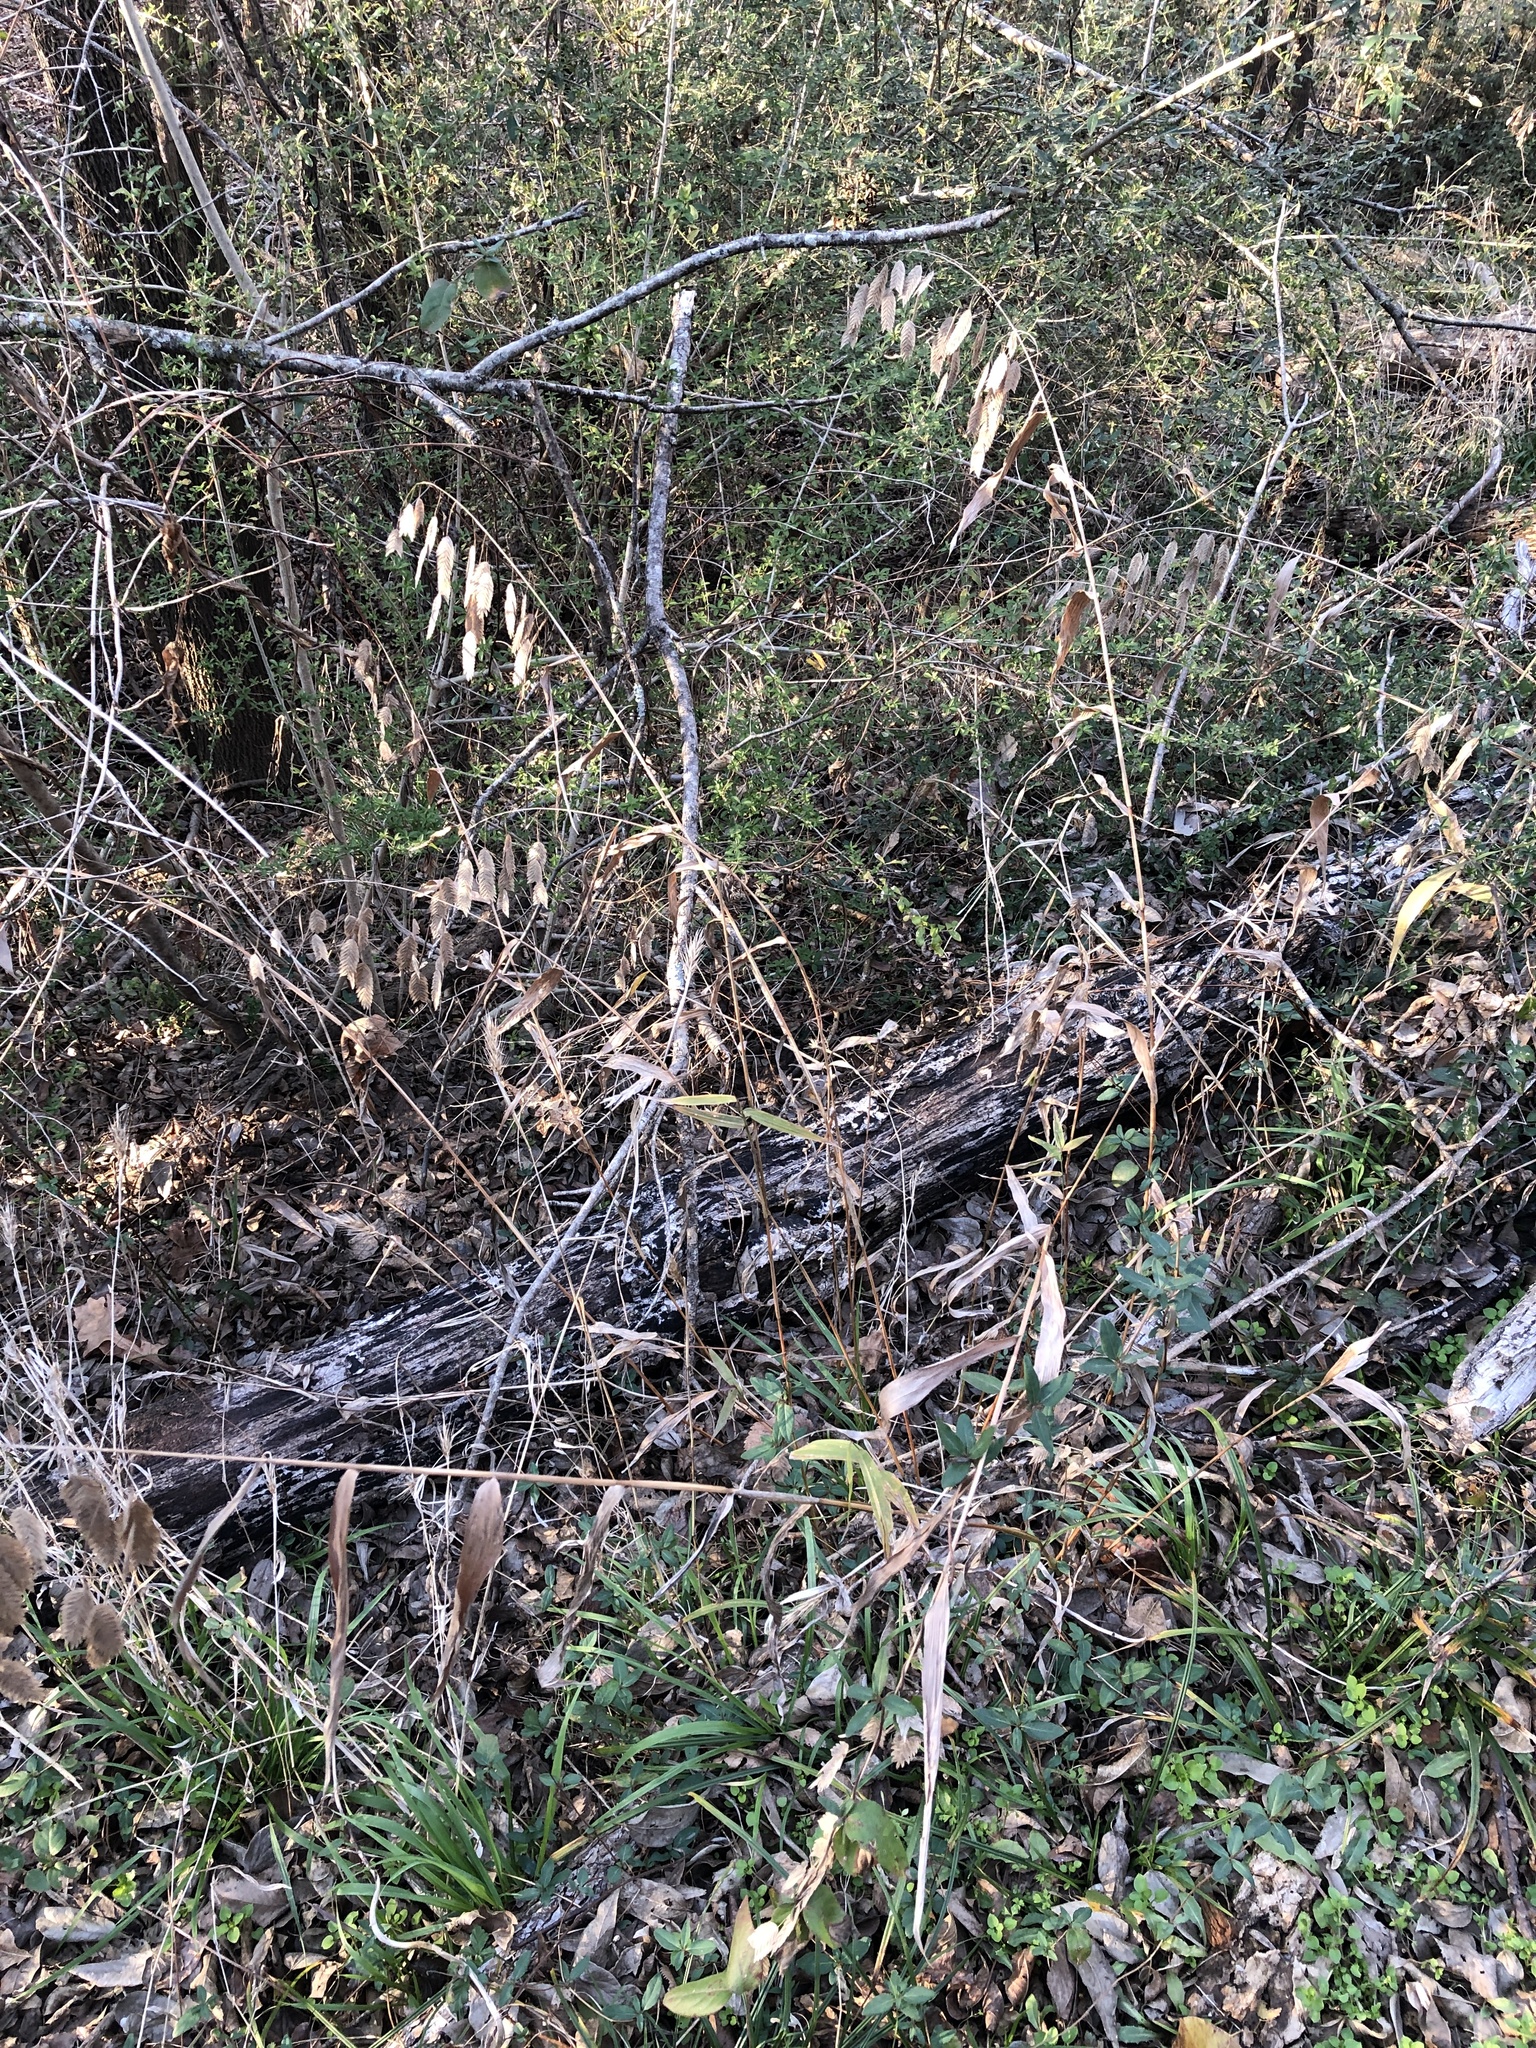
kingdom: Plantae
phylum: Tracheophyta
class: Liliopsida
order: Poales
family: Poaceae
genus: Chasmanthium
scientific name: Chasmanthium latifolium
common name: Broad-leaved chasmanthium
